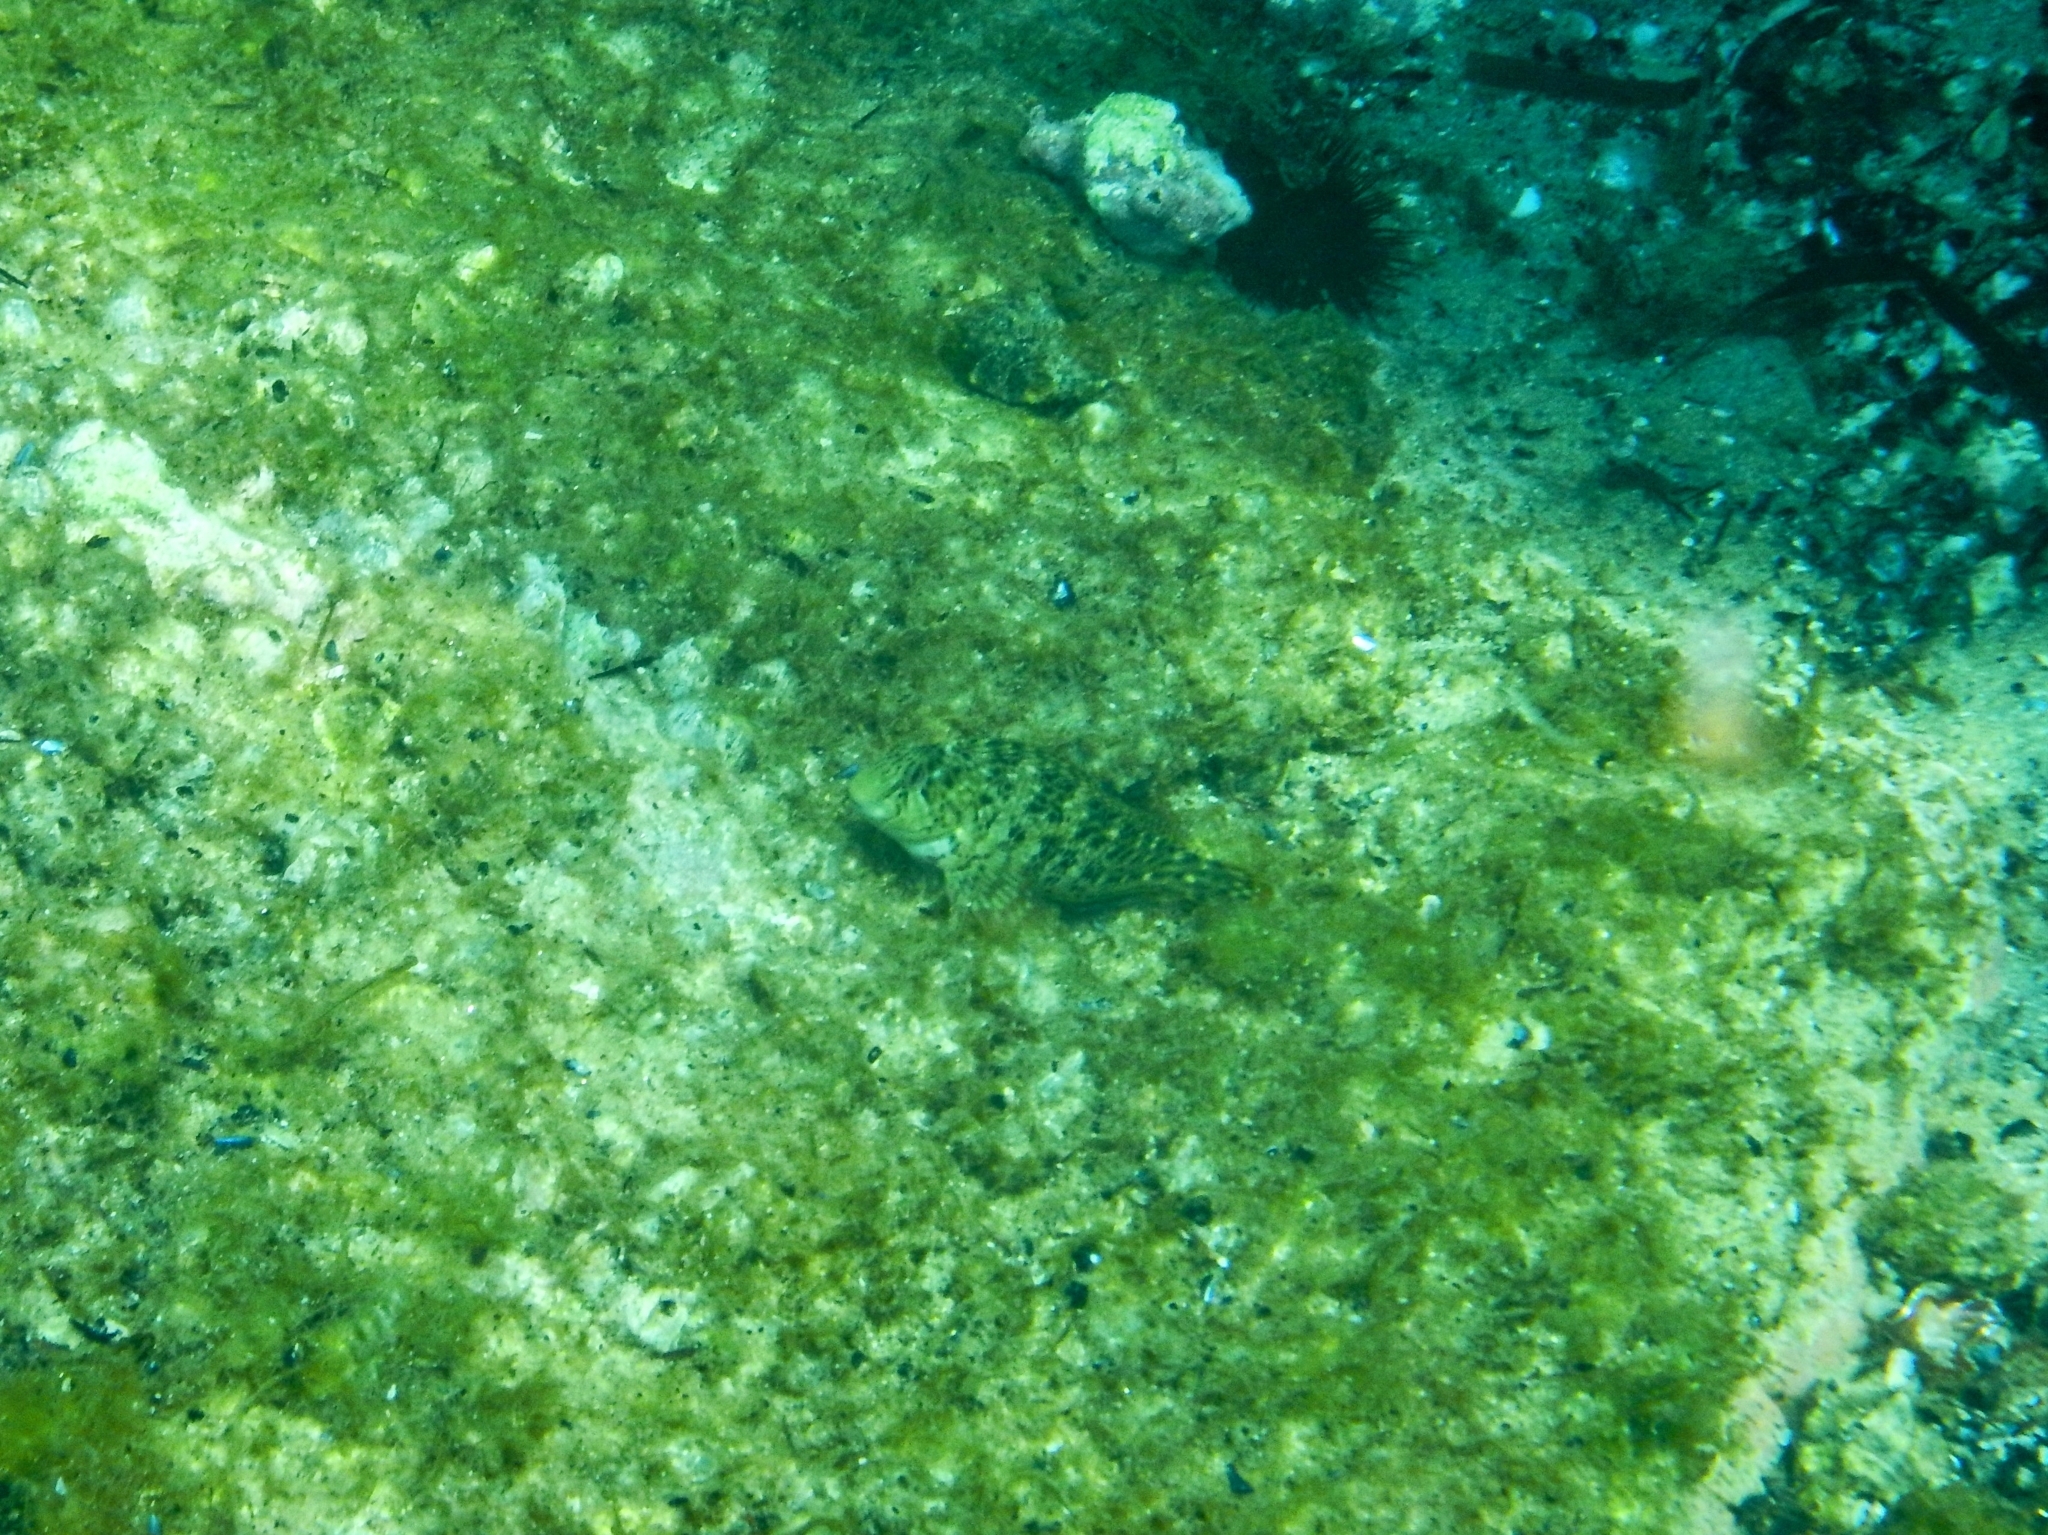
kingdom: Animalia
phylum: Chordata
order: Perciformes
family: Blenniidae
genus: Parablennius
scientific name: Parablennius sanguinolentus
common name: Black sea blenny
